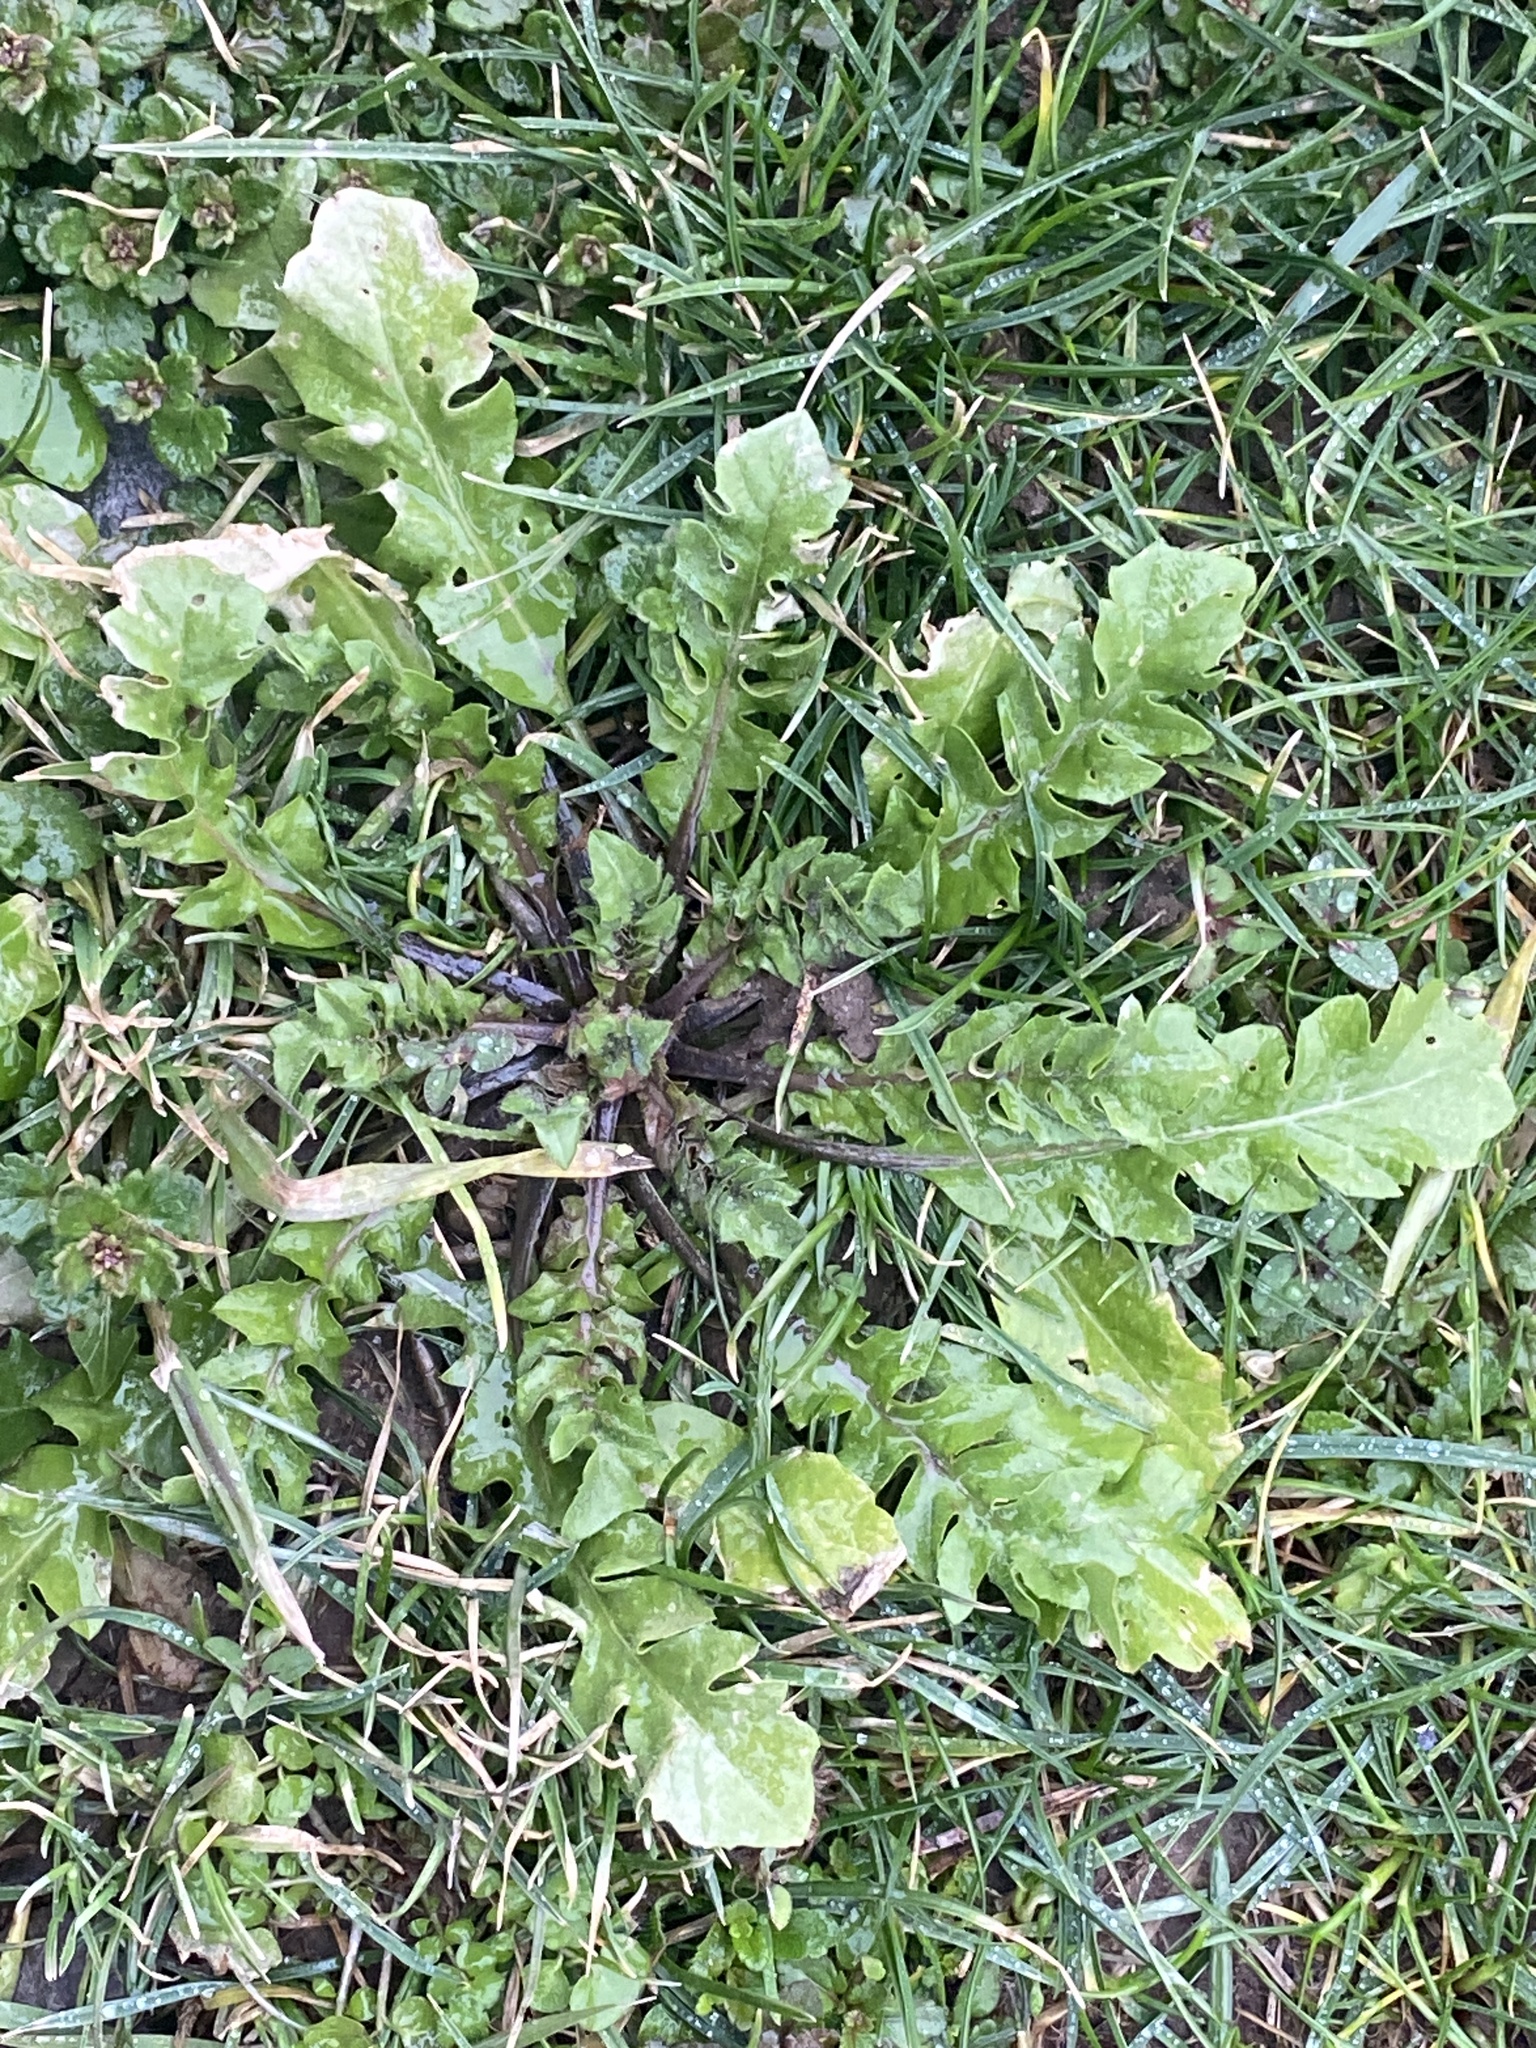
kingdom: Plantae
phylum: Tracheophyta
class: Magnoliopsida
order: Brassicales
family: Brassicaceae
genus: Capsella
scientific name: Capsella bursa-pastoris
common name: Shepherd's purse
